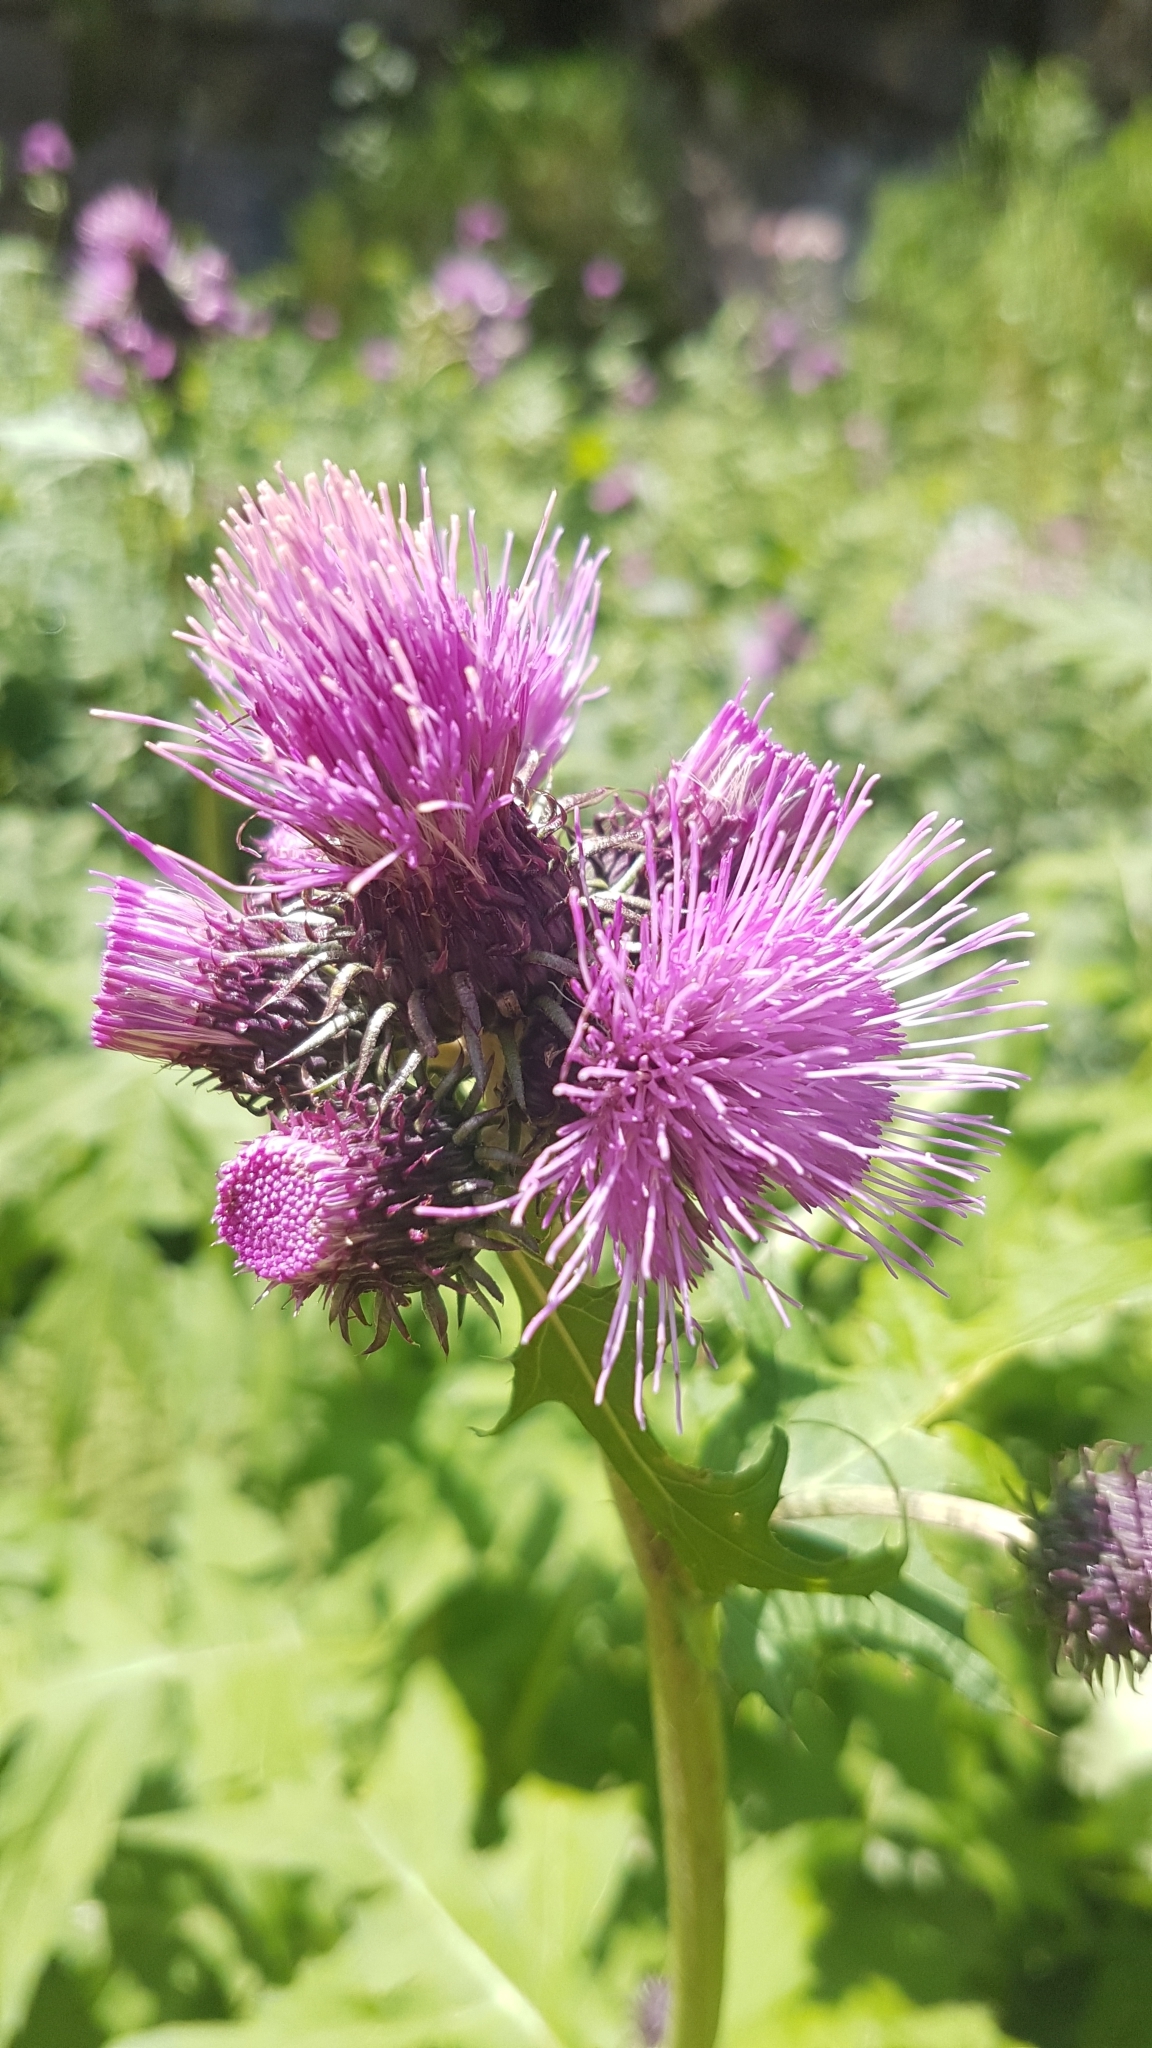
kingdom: Plantae
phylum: Tracheophyta
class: Magnoliopsida
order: Asterales
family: Asteraceae
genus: Cirsium
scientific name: Cirsium alsophilum
